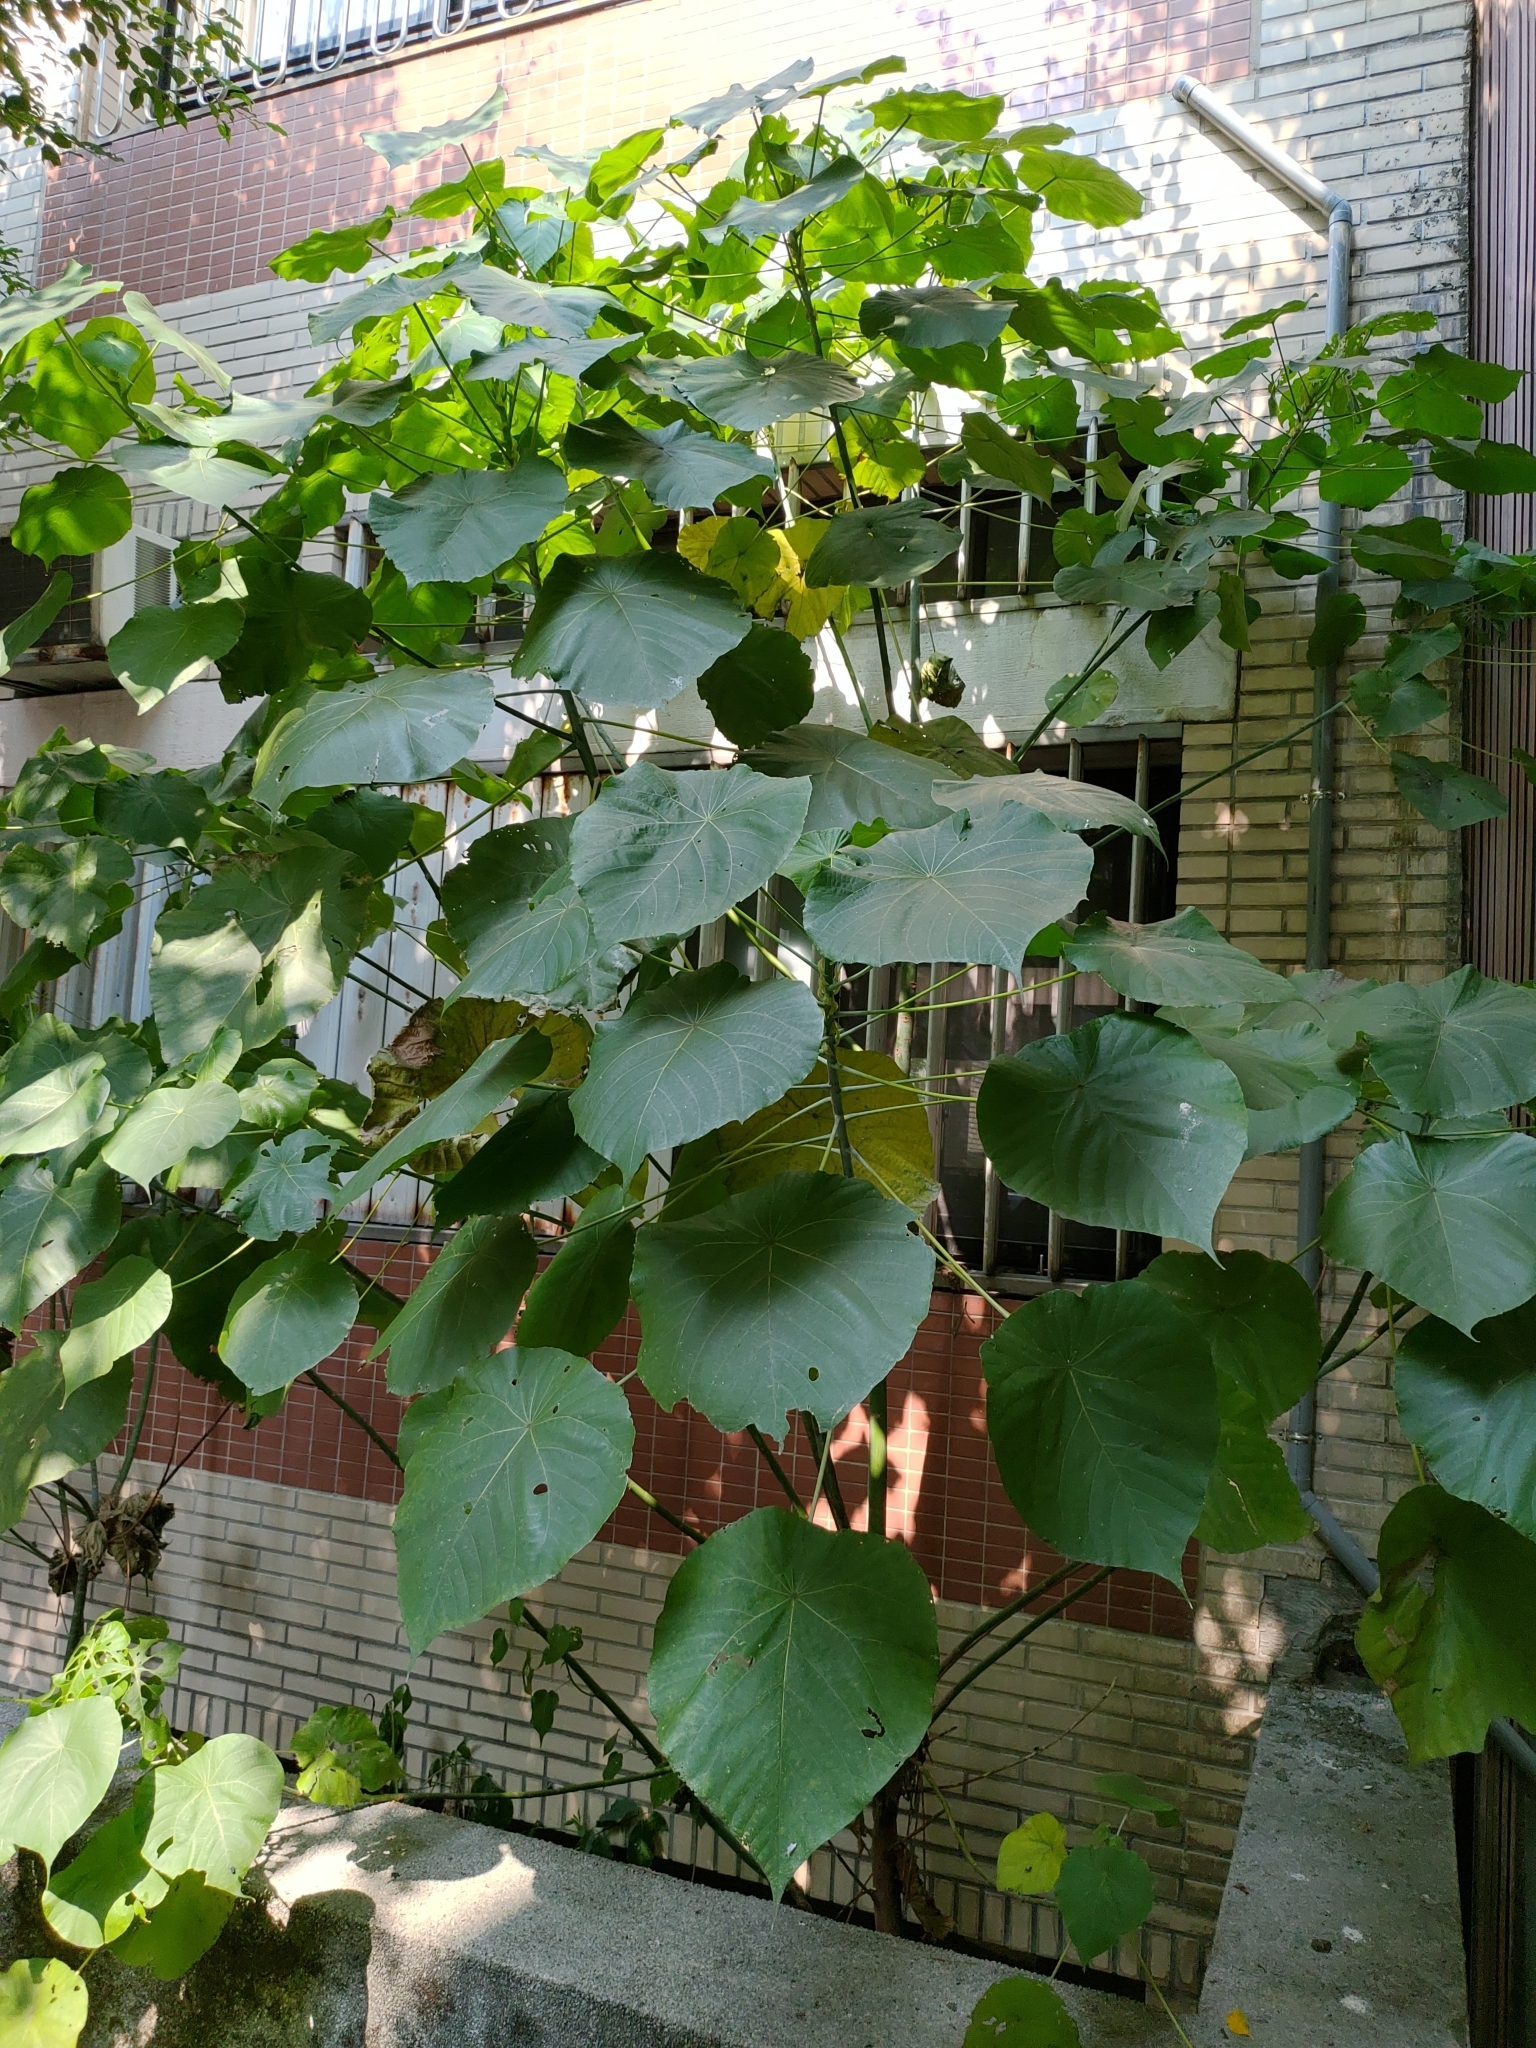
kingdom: Plantae
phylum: Tracheophyta
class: Magnoliopsida
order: Malpighiales
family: Euphorbiaceae
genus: Macaranga
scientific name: Macaranga tanarius
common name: Parasol leaf tree
